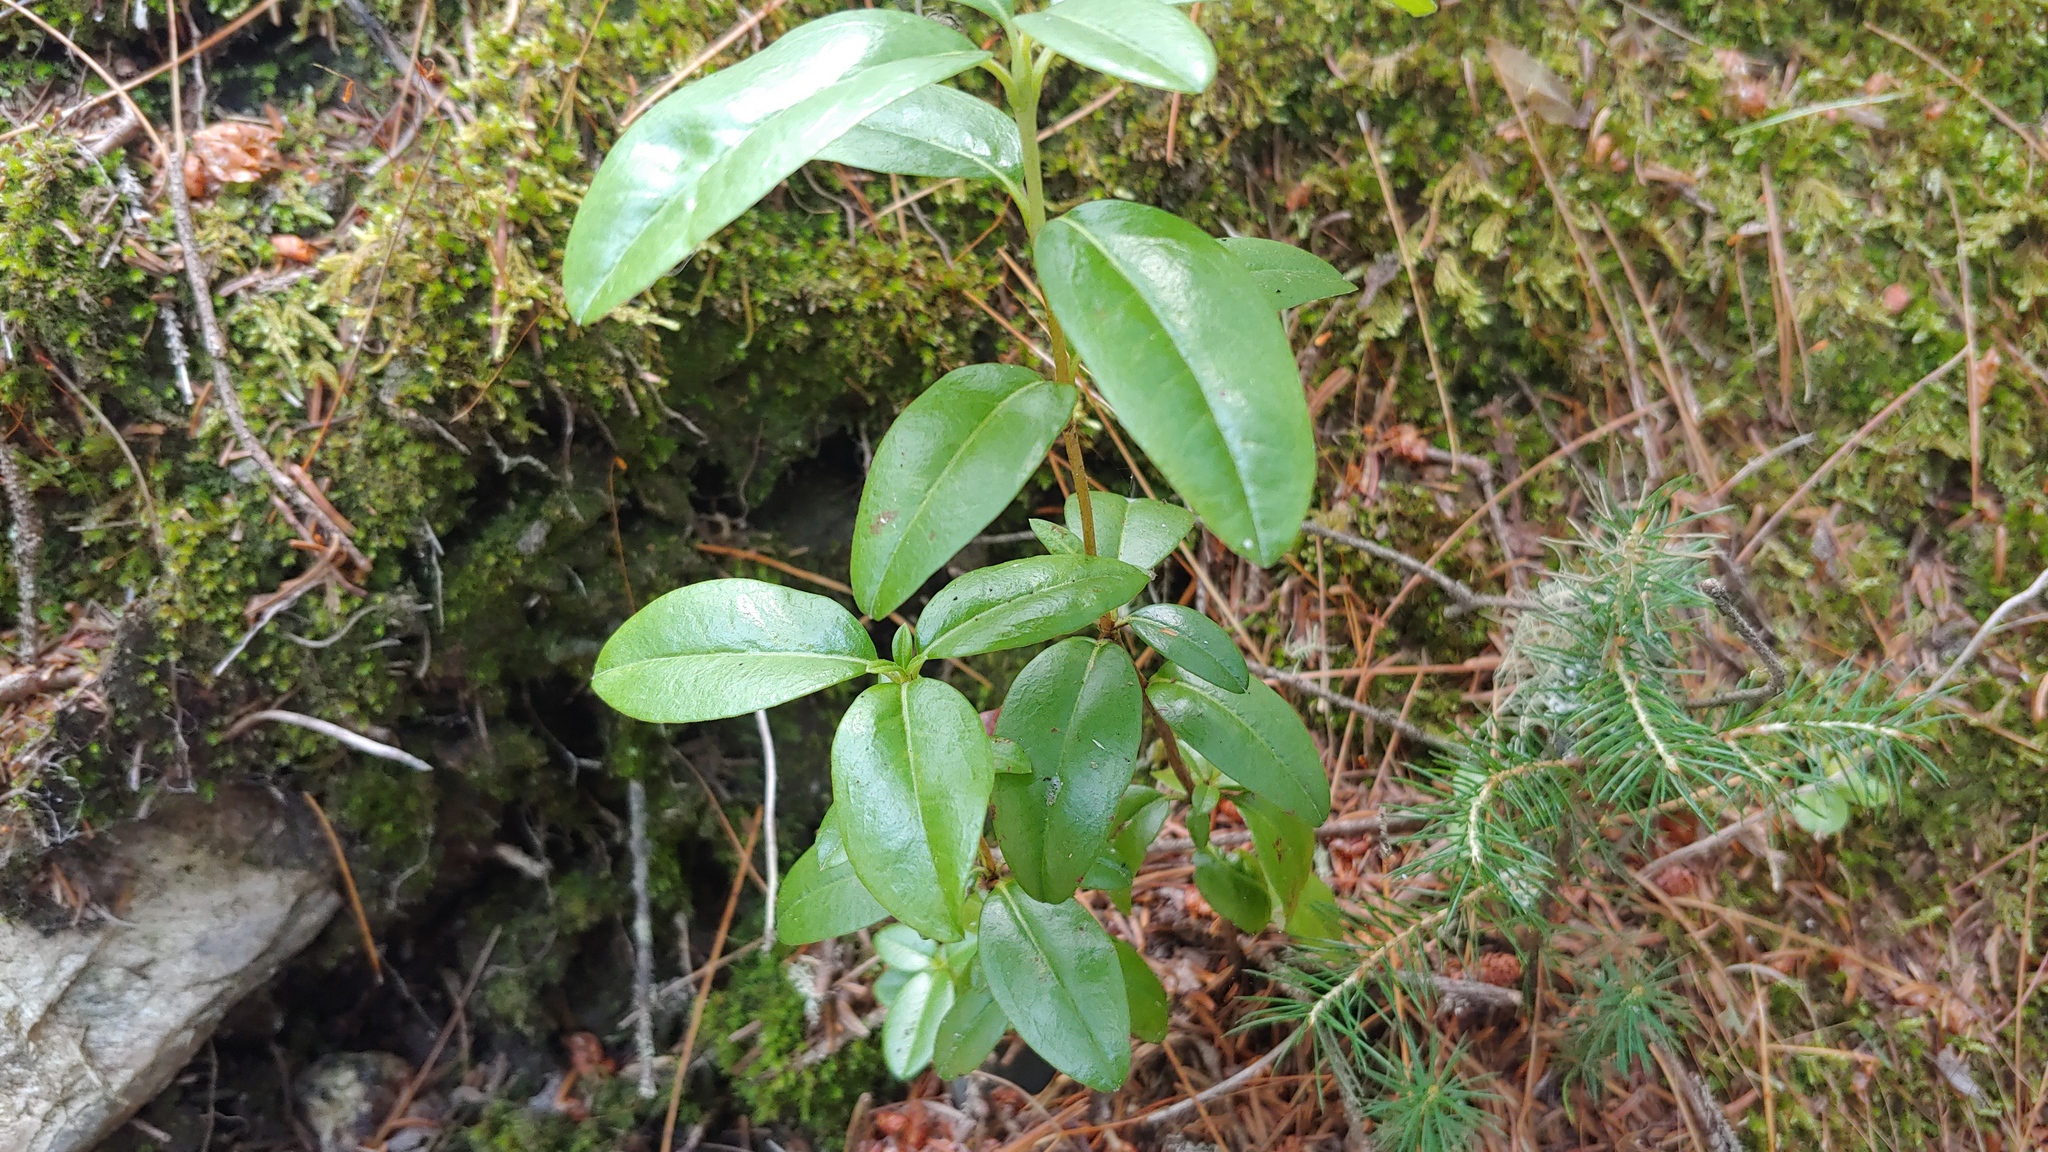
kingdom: Plantae
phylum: Tracheophyta
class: Magnoliopsida
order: Ericales
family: Ericaceae
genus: Kalmia
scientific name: Kalmia angustifolia
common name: Sheep-laurel
